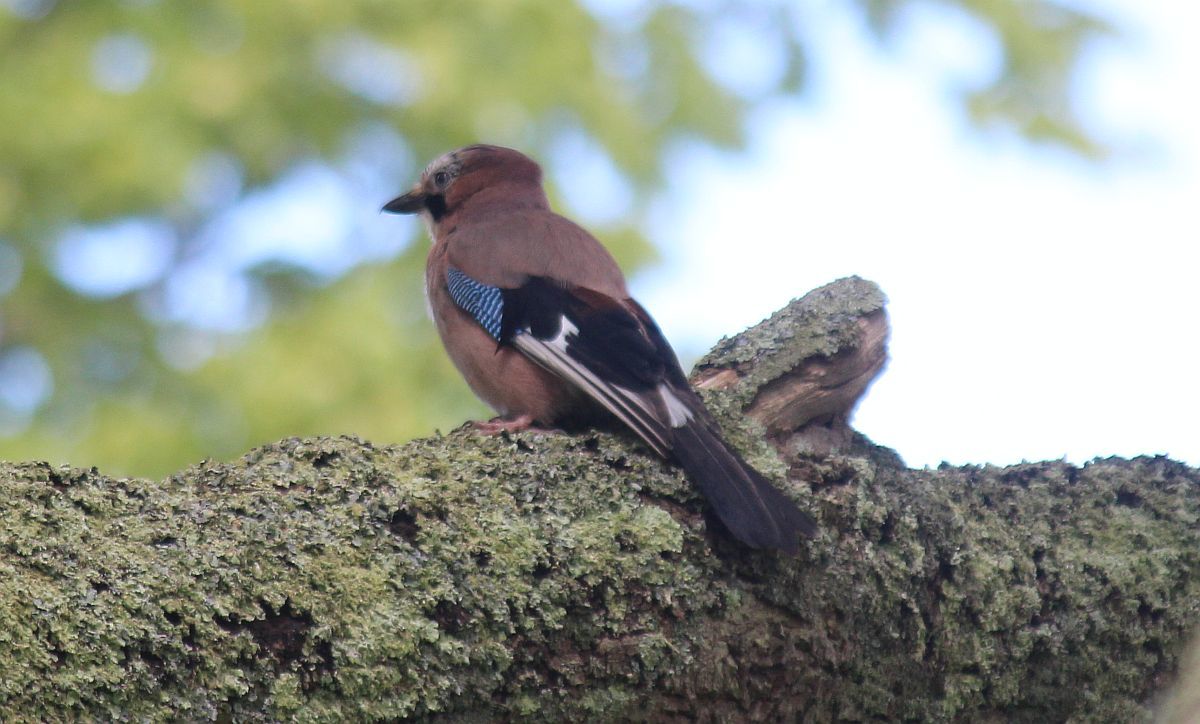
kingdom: Animalia
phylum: Chordata
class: Aves
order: Passeriformes
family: Corvidae
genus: Garrulus
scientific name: Garrulus glandarius
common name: Eurasian jay
